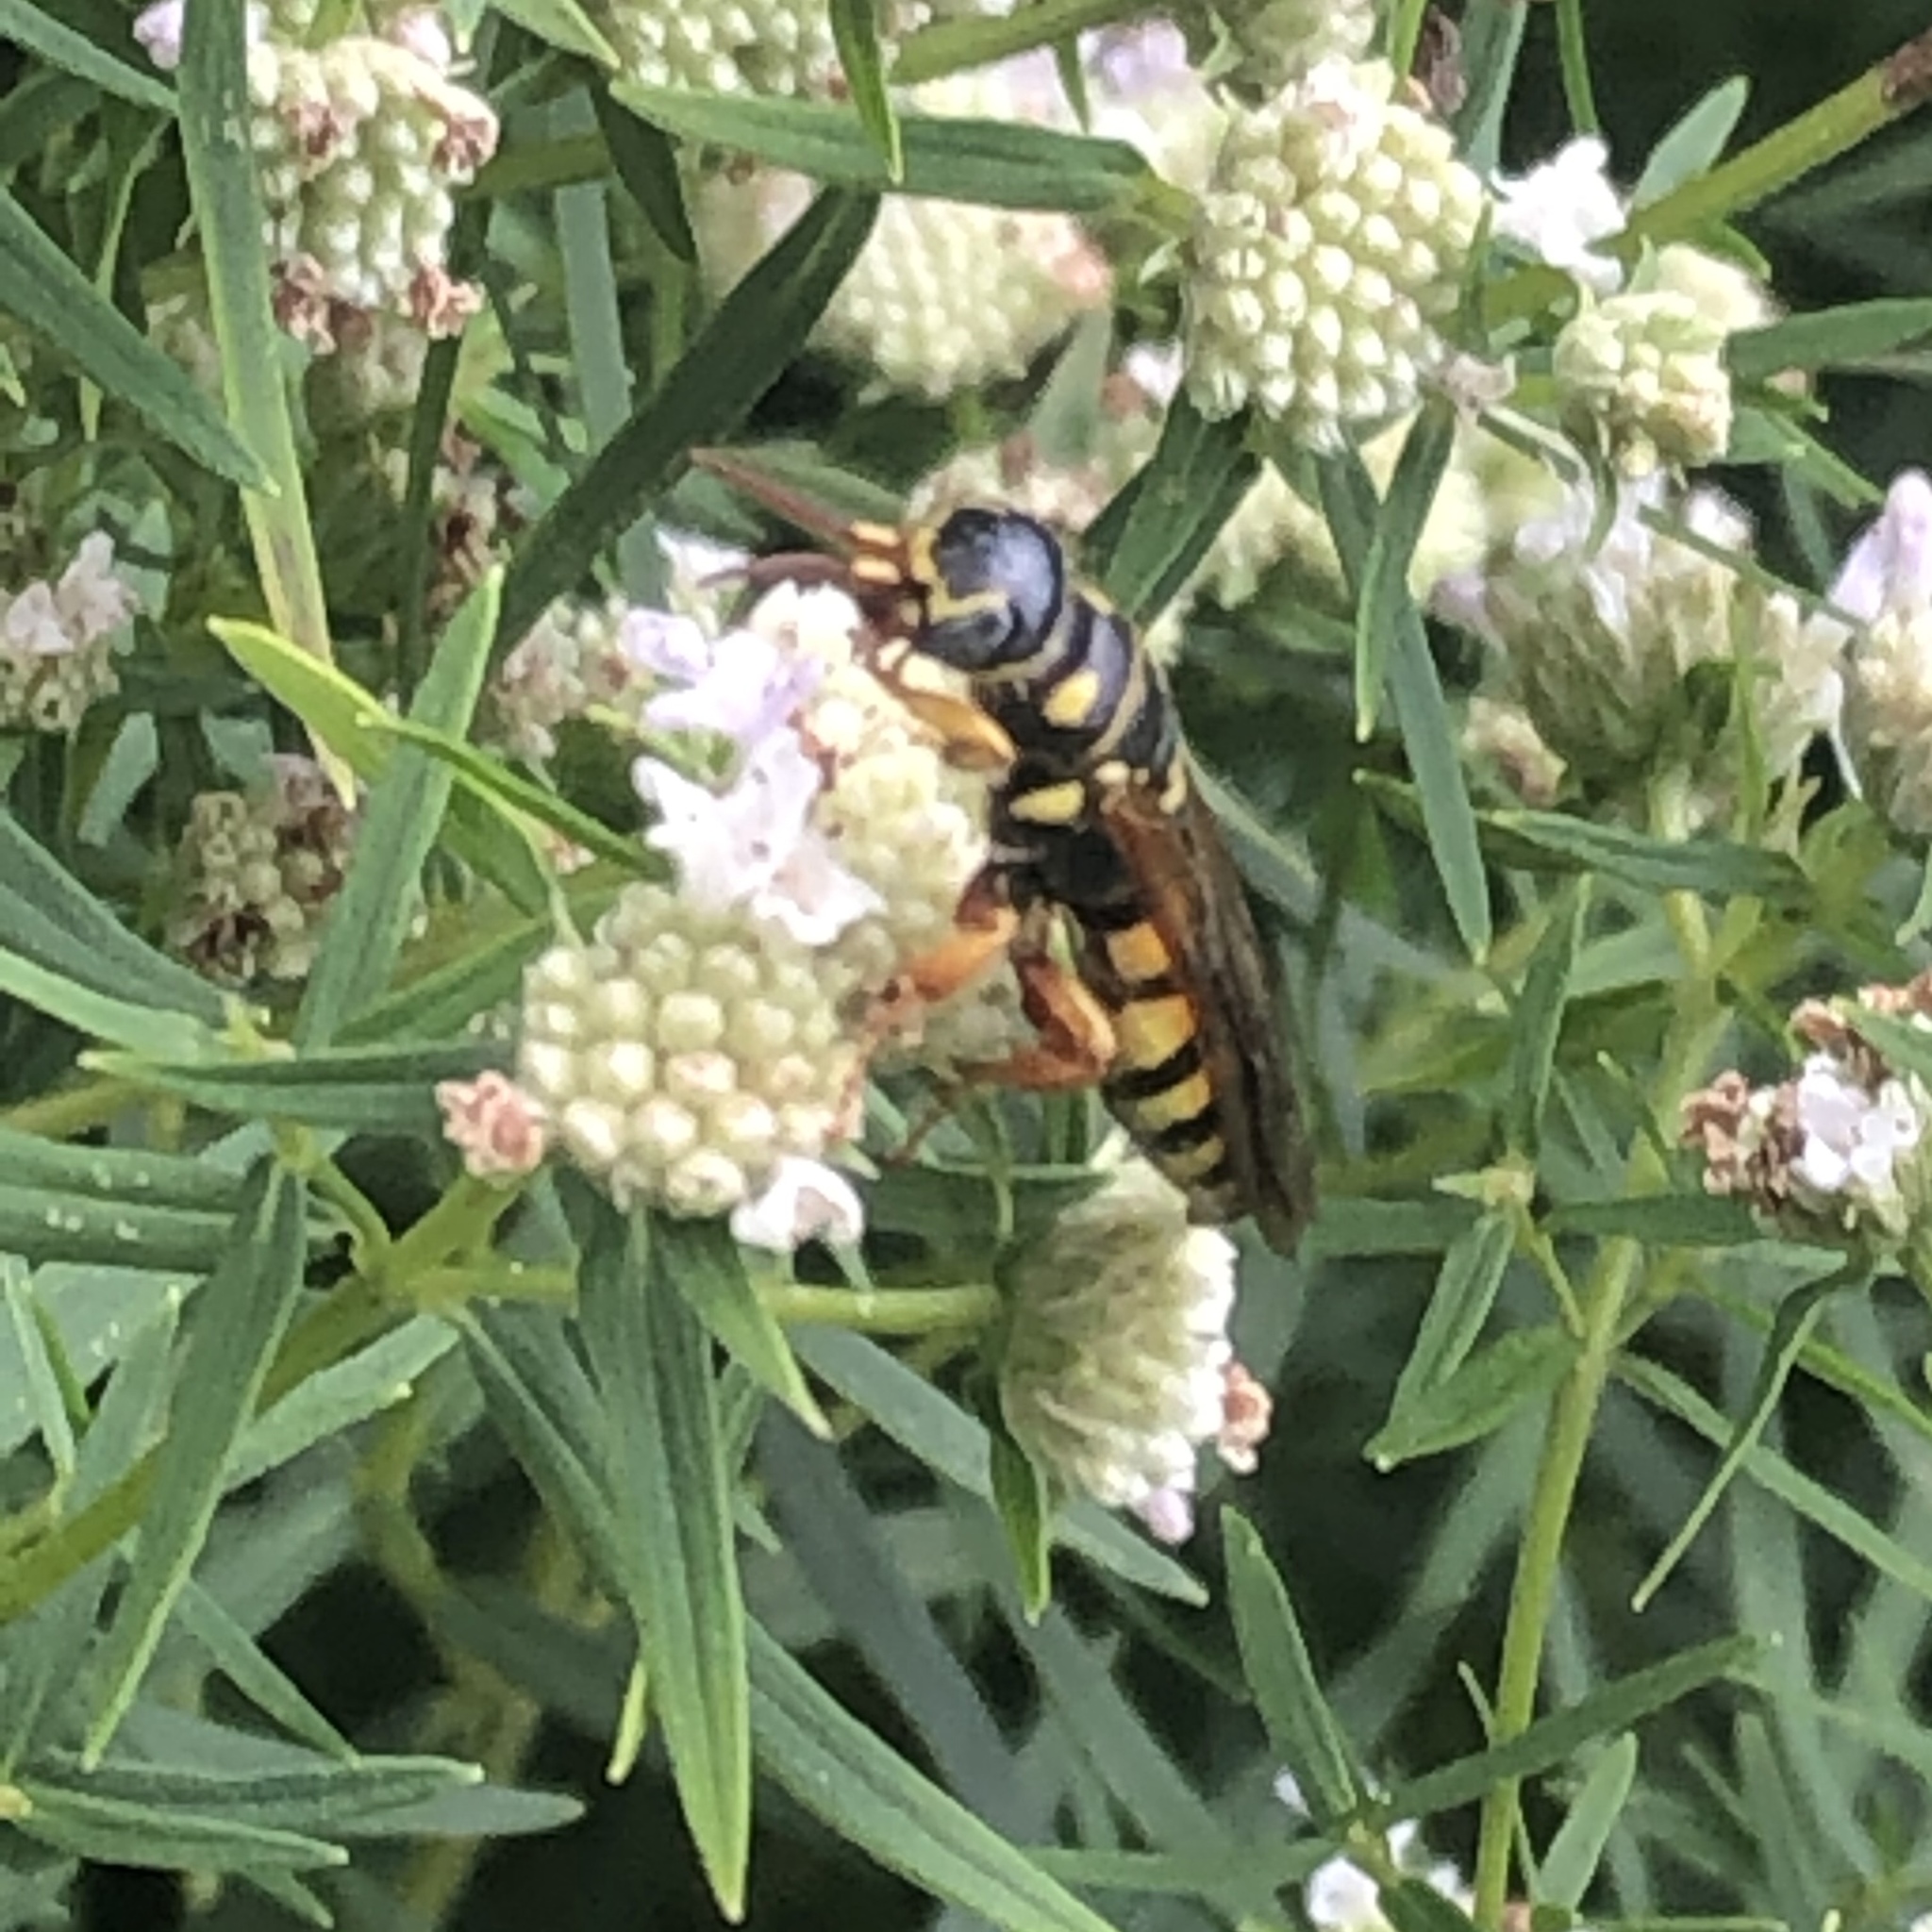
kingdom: Animalia
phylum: Arthropoda
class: Insecta
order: Hymenoptera
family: Tiphiidae
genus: Myzinum
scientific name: Myzinum quinquecinctum
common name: Five-banded thynnid wasp
